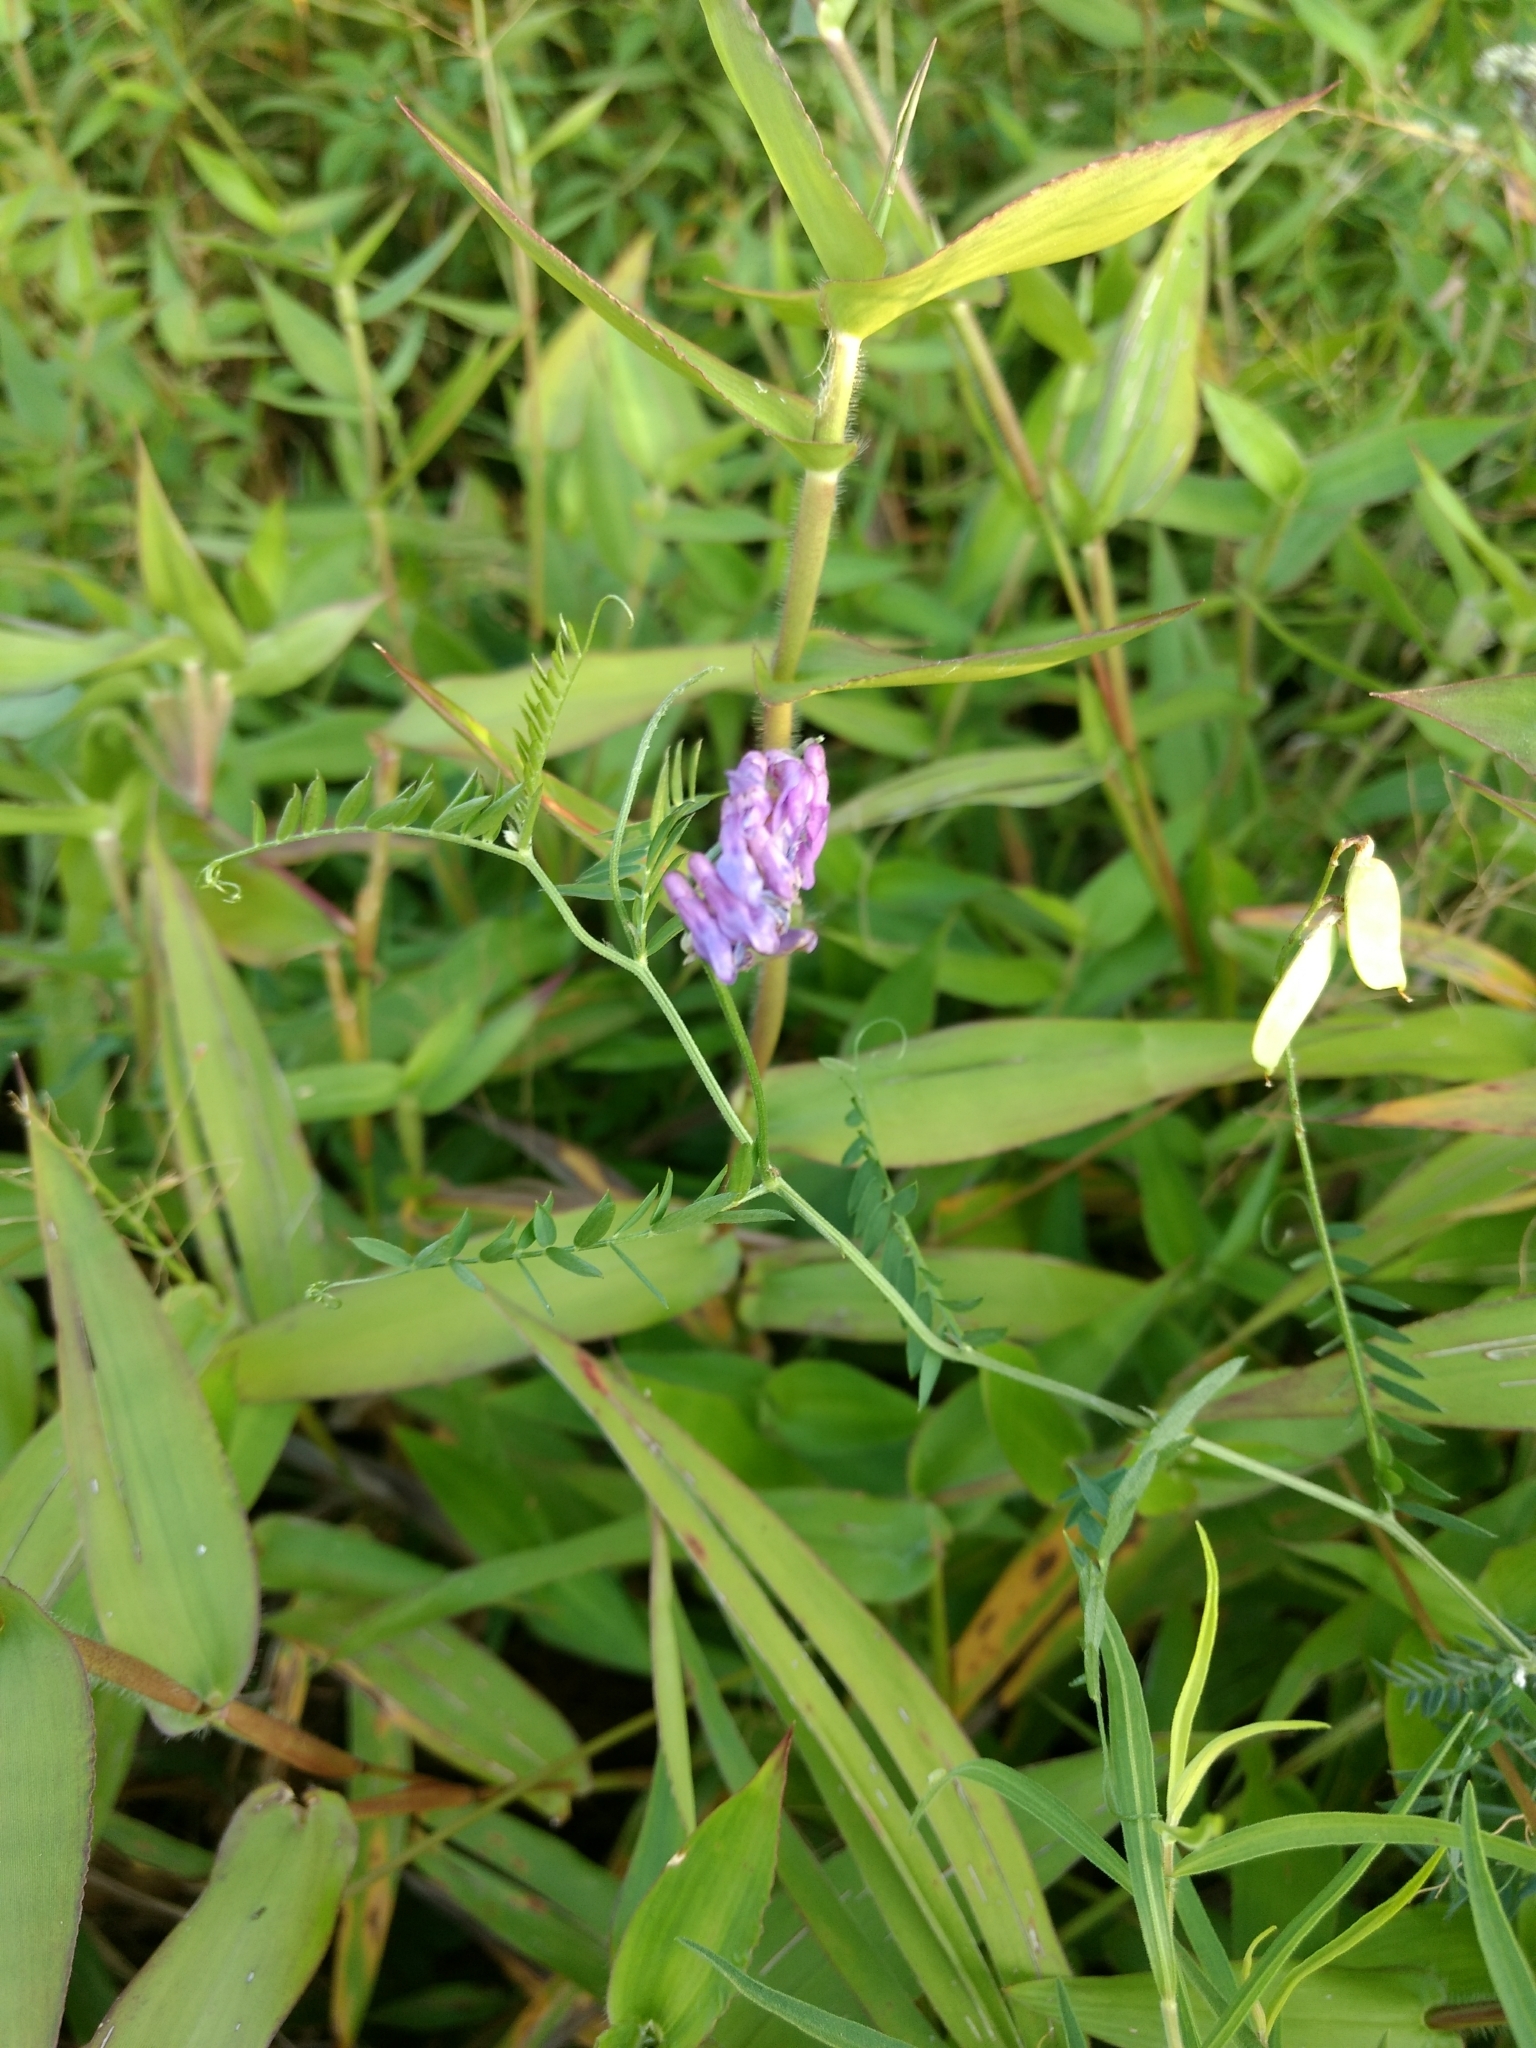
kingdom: Plantae
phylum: Tracheophyta
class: Magnoliopsida
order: Fabales
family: Fabaceae
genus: Vicia
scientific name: Vicia cracca
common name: Bird vetch
